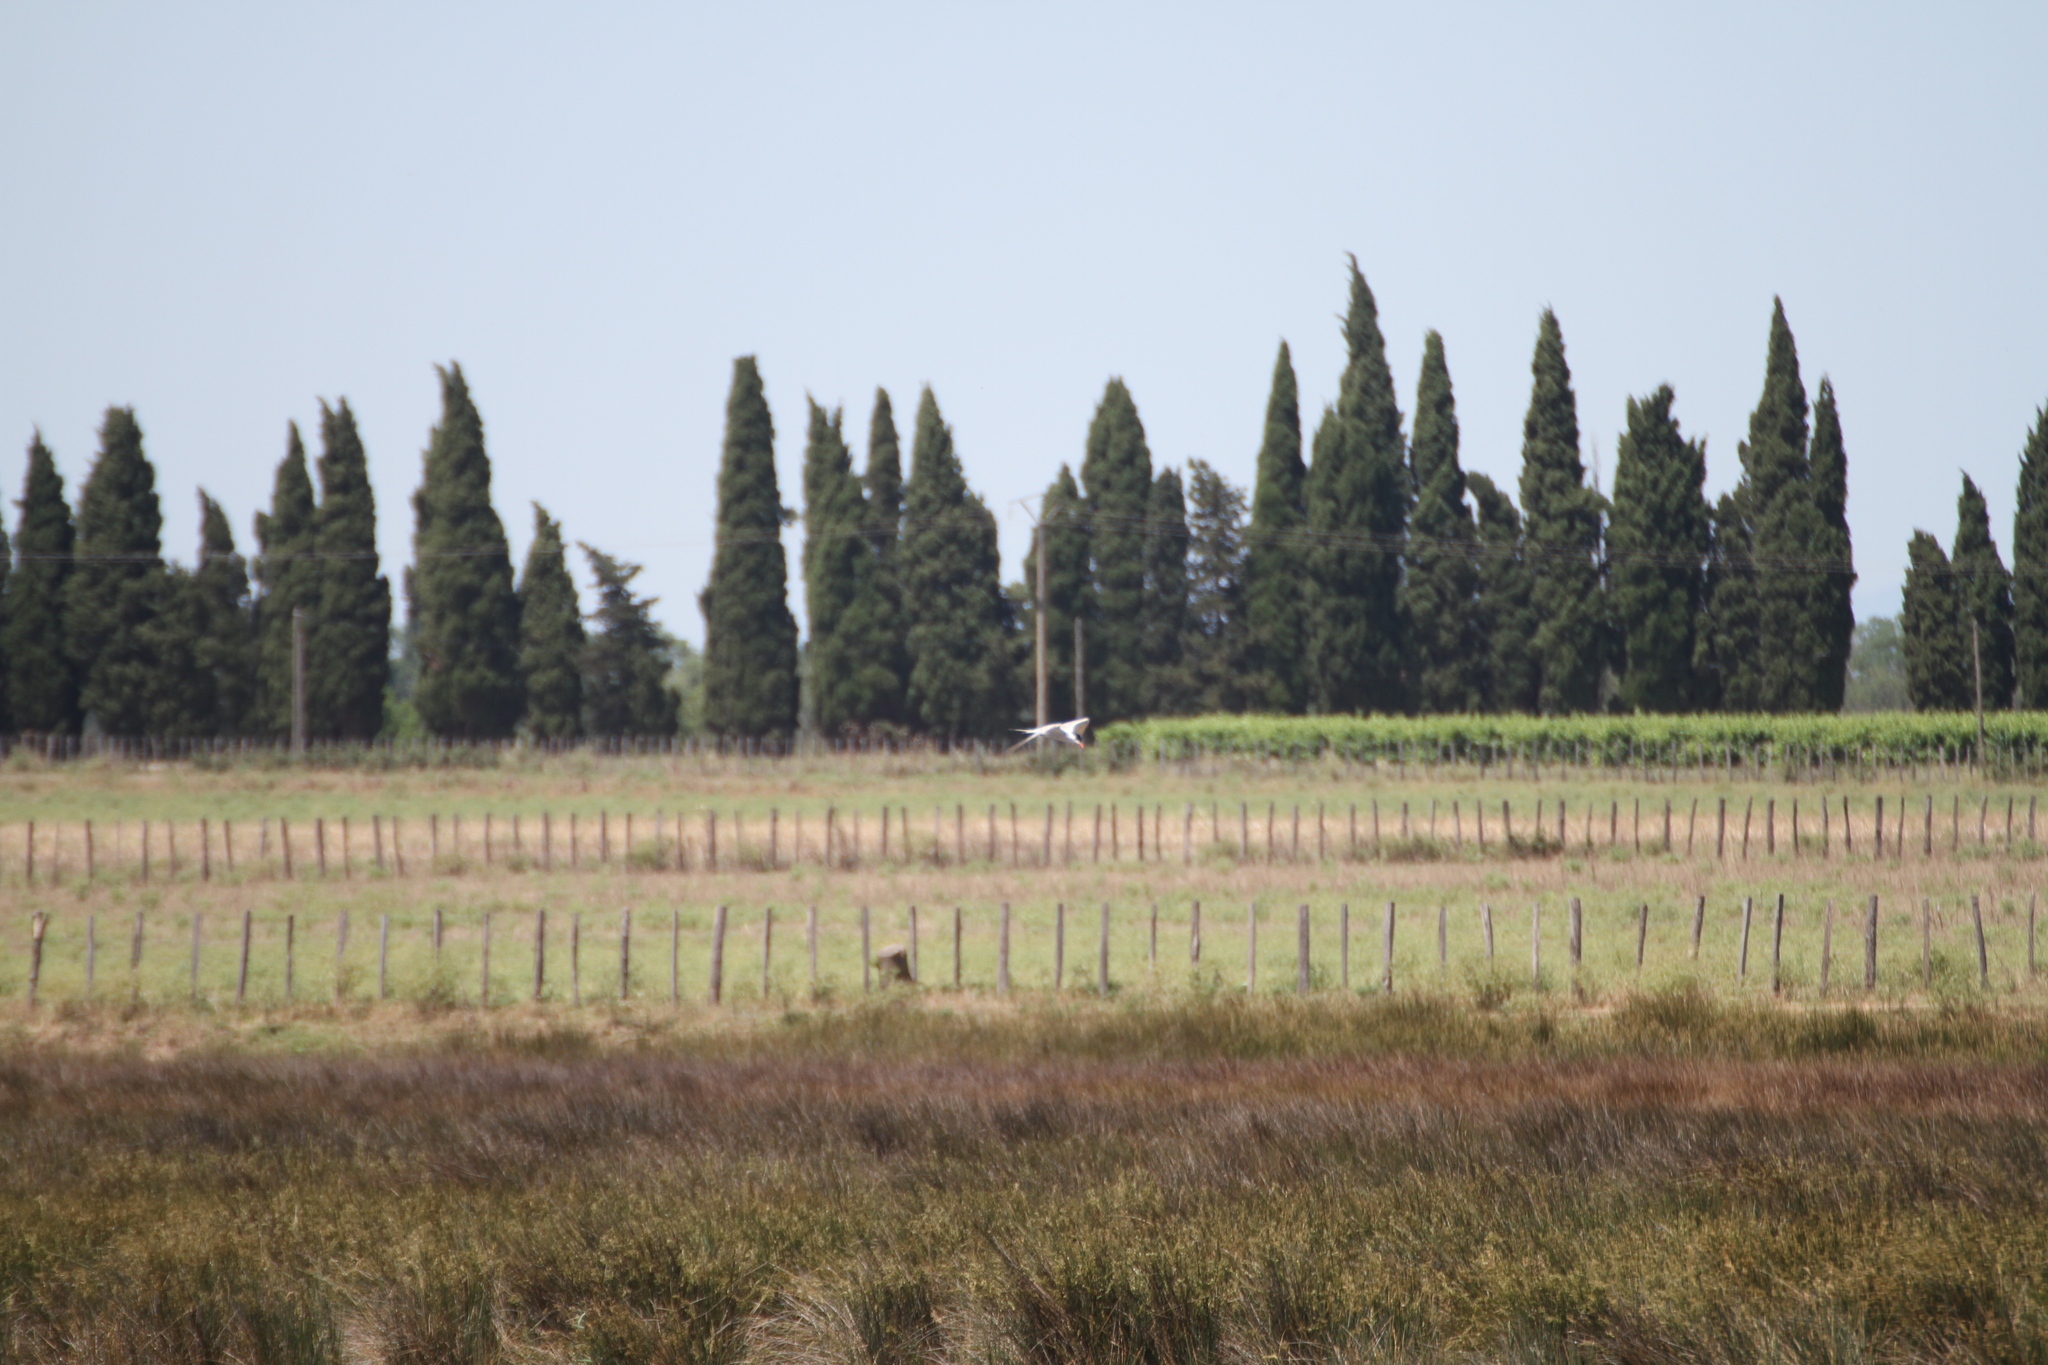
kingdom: Animalia
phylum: Chordata
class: Aves
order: Charadriiformes
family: Laridae
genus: Sterna
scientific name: Sterna hirundo
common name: Common tern
